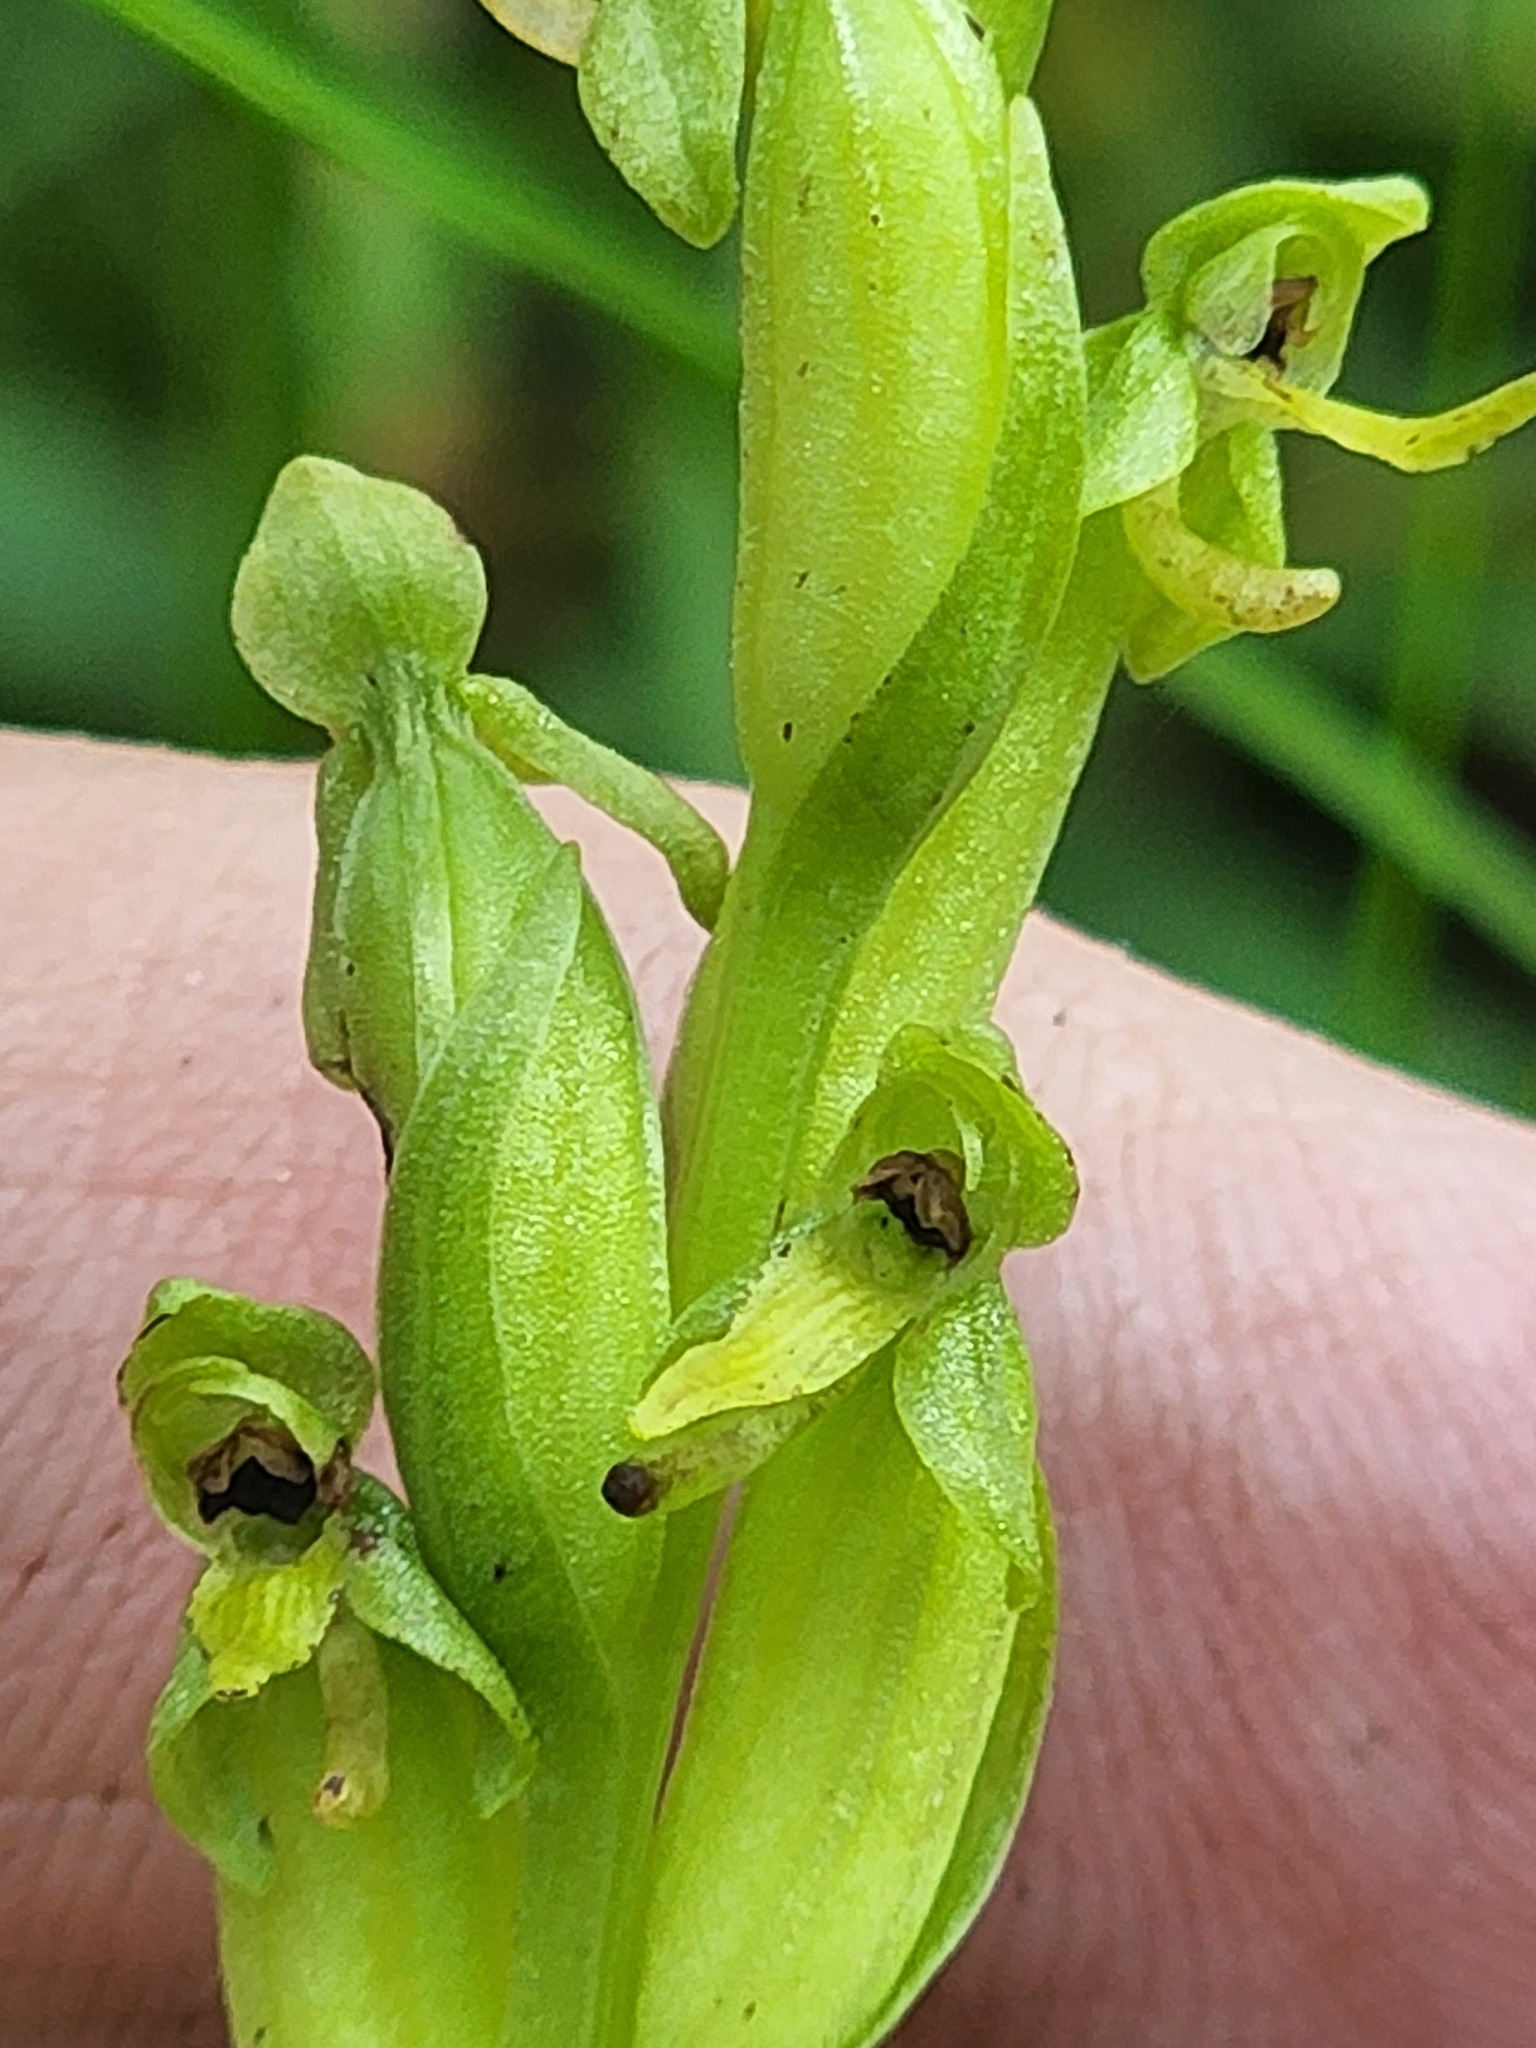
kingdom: Plantae
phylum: Tracheophyta
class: Liliopsida
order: Asparagales
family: Orchidaceae
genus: Platanthera
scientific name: Platanthera aquilonis
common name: Northern green orchid
